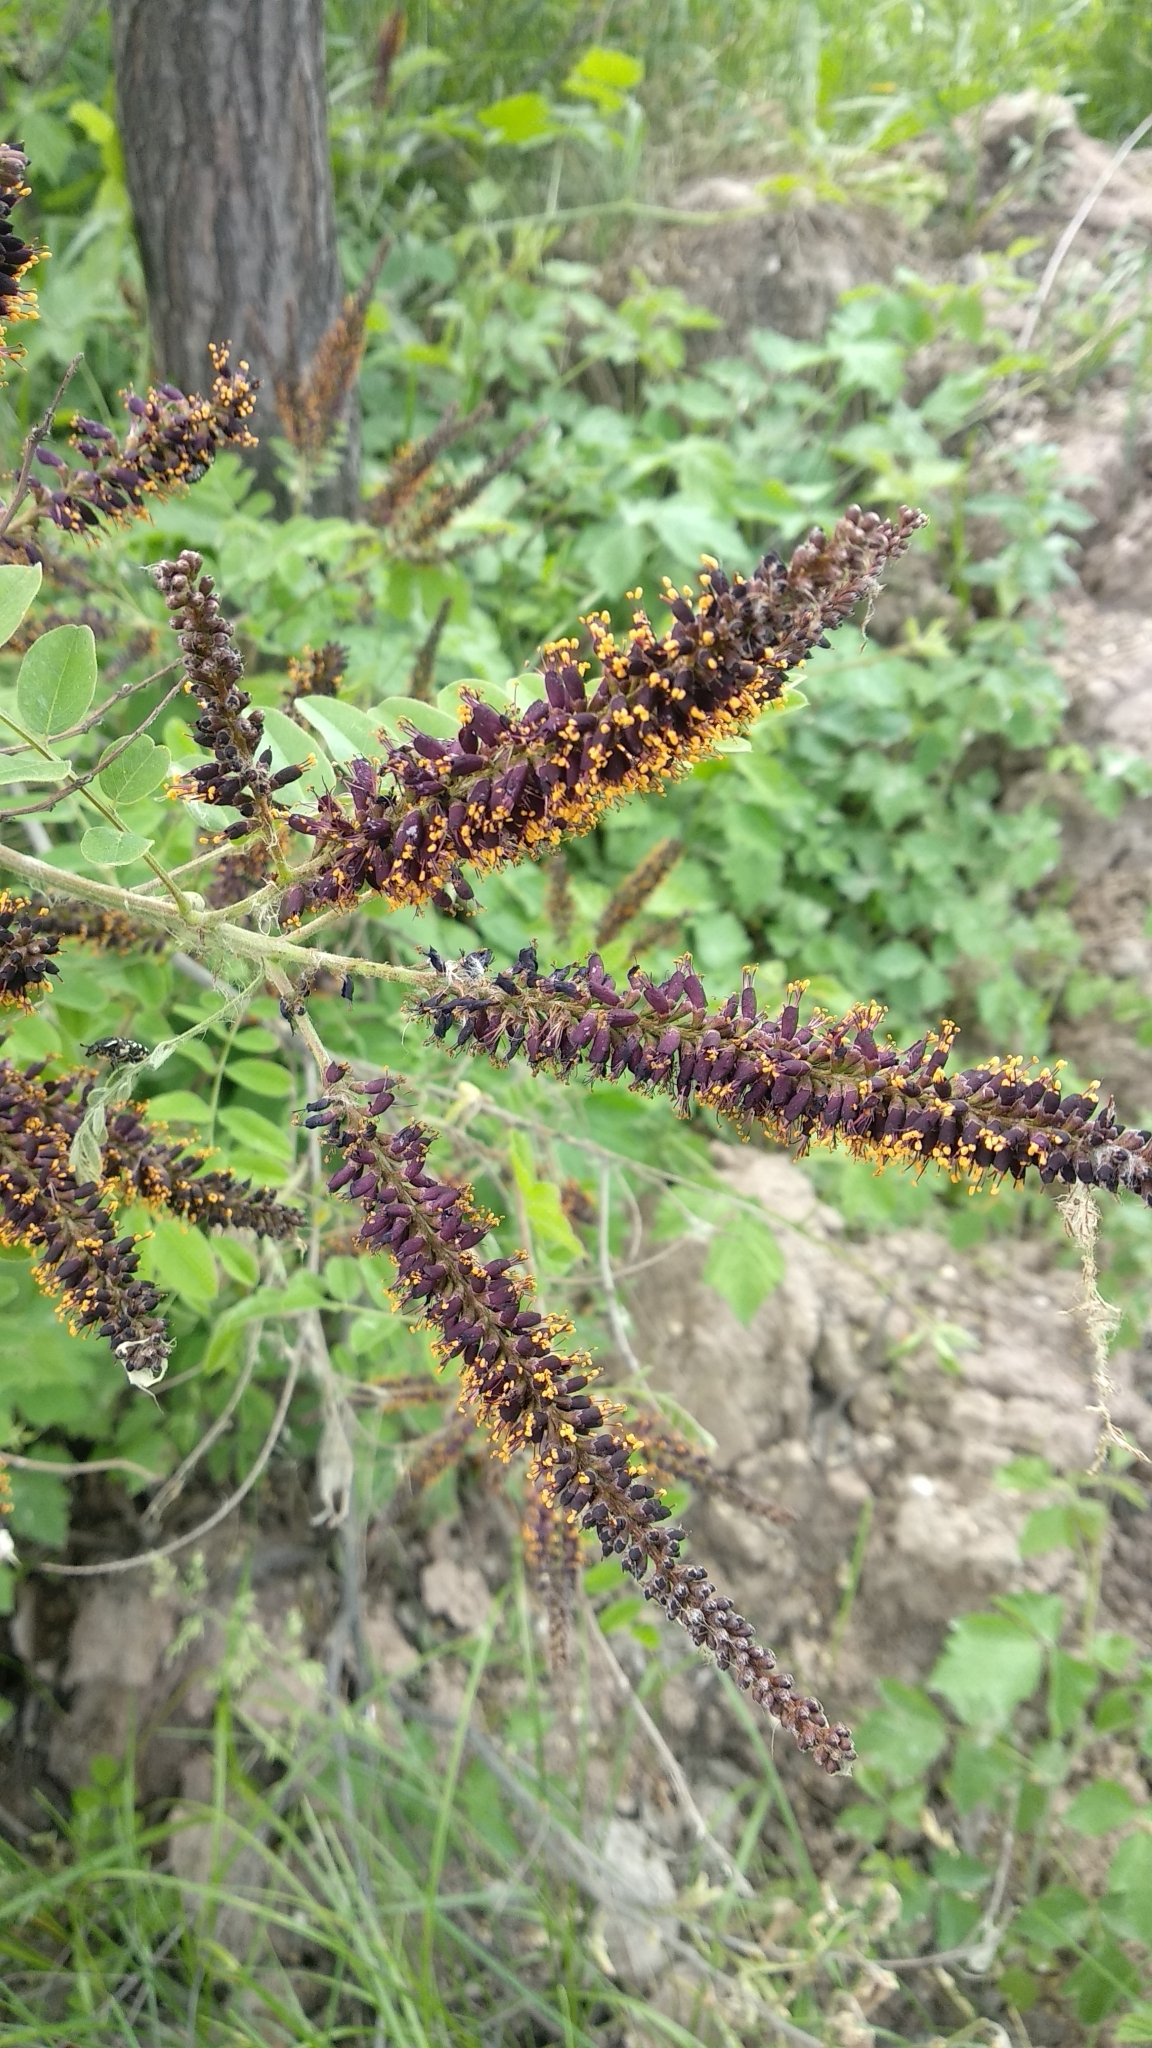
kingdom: Plantae
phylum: Tracheophyta
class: Magnoliopsida
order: Fabales
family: Fabaceae
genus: Amorpha
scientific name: Amorpha fruticosa
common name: False indigo
